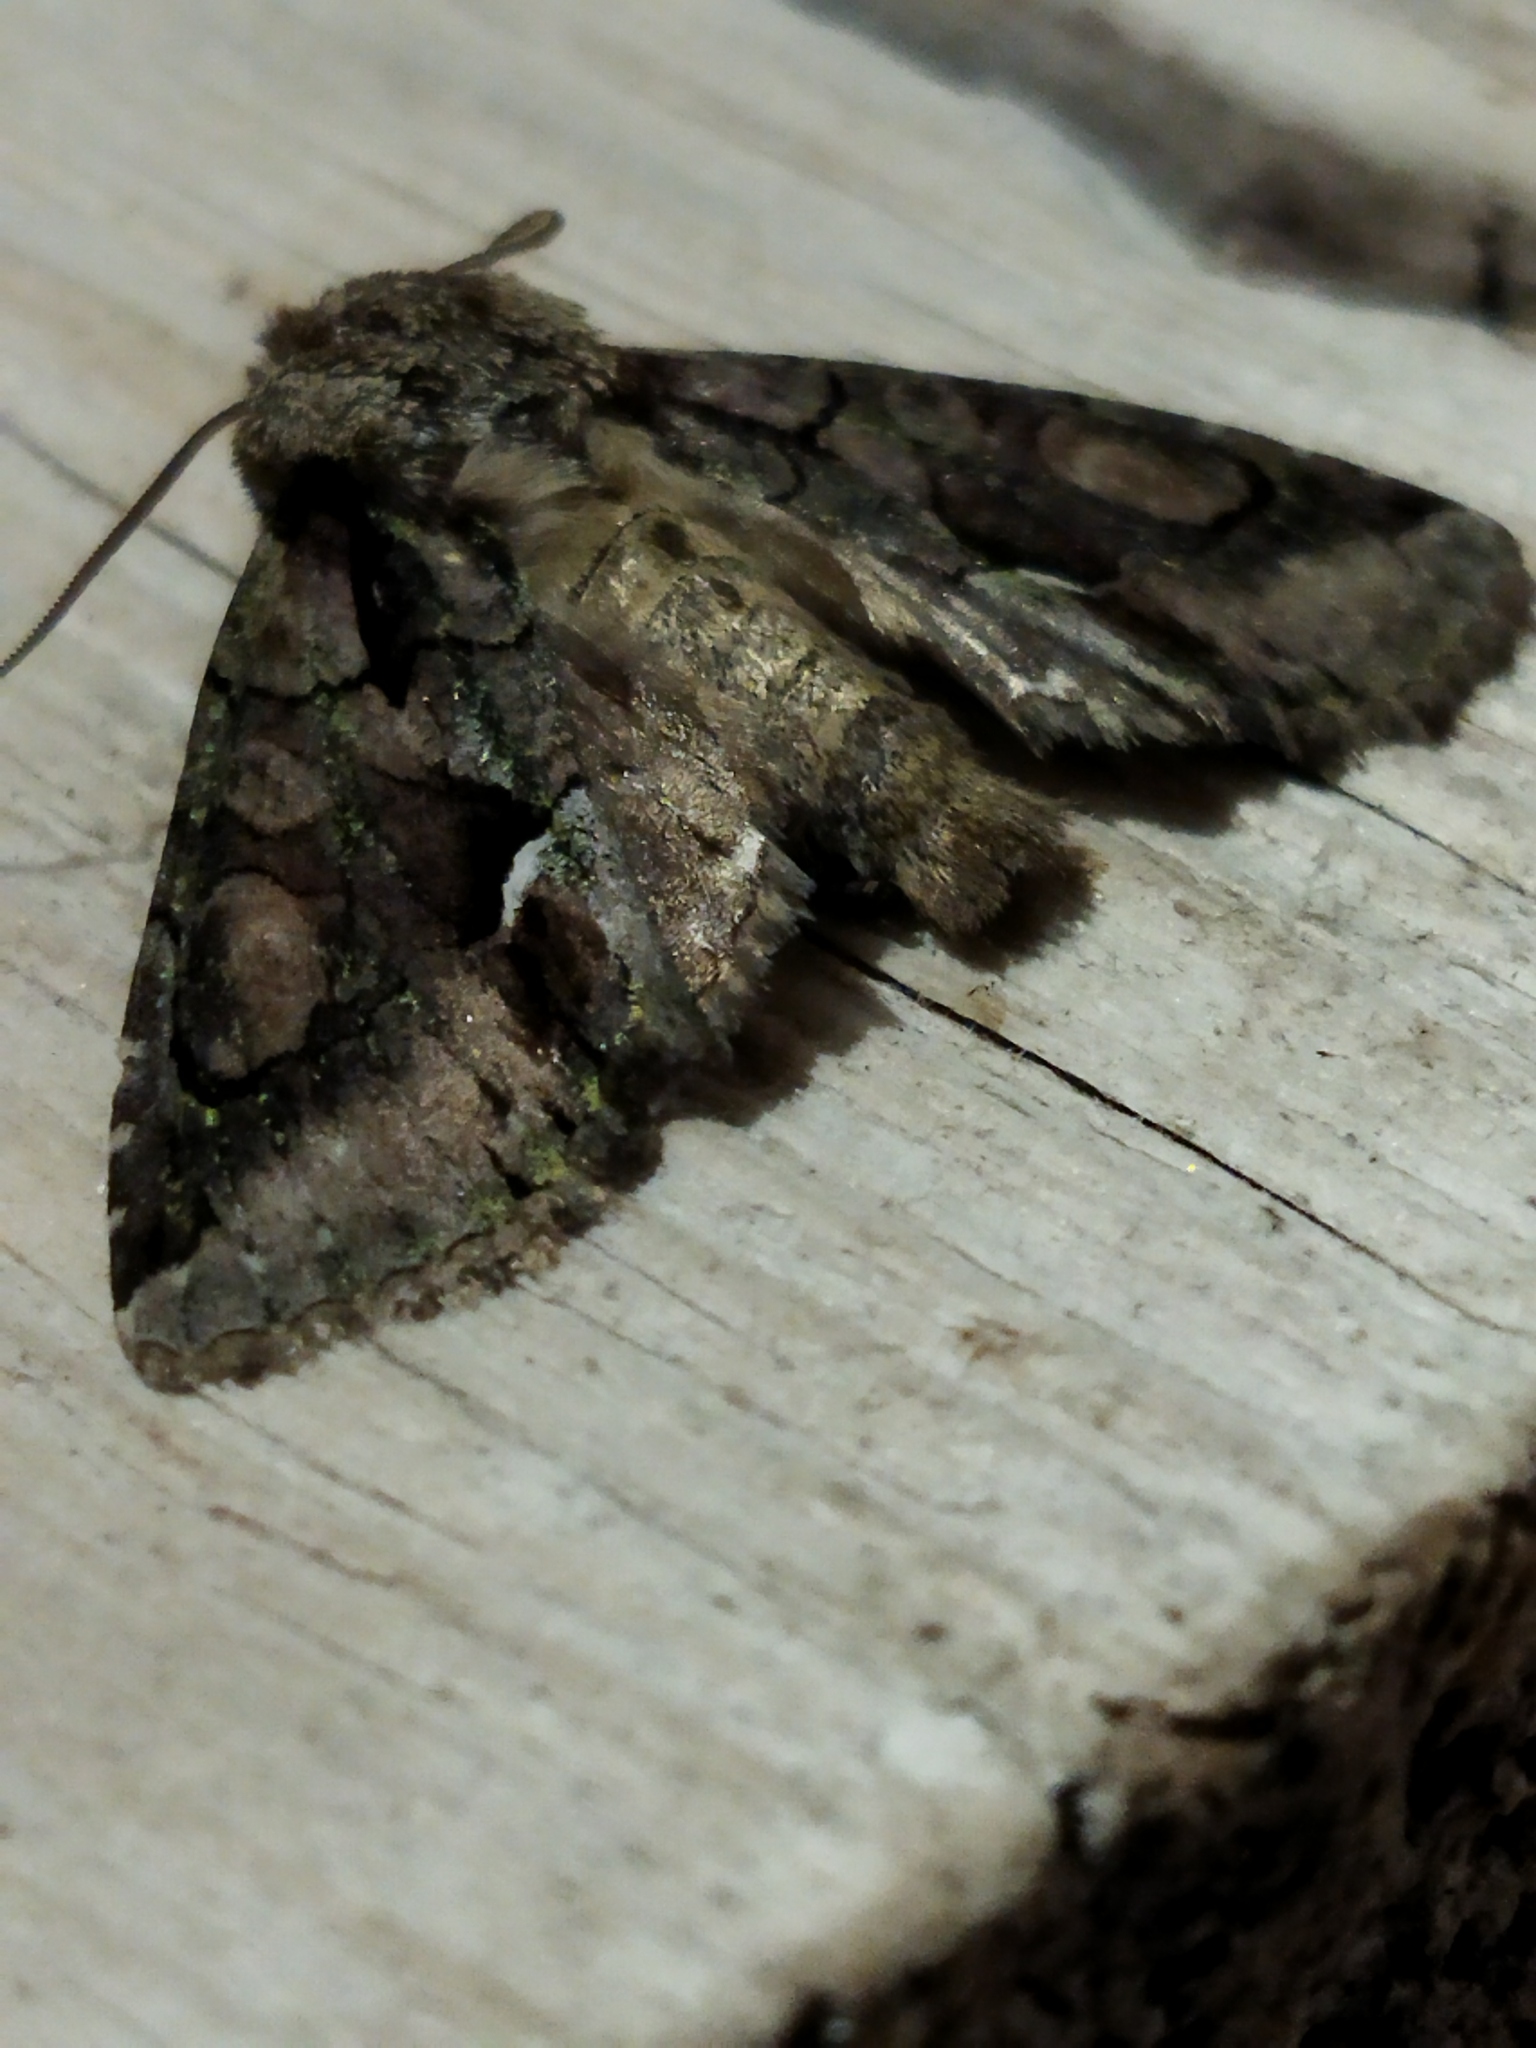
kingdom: Animalia
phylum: Arthropoda
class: Insecta
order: Lepidoptera
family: Noctuidae
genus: Allophyes
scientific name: Allophyes oxyacanthae
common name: Green-brindled crescent
